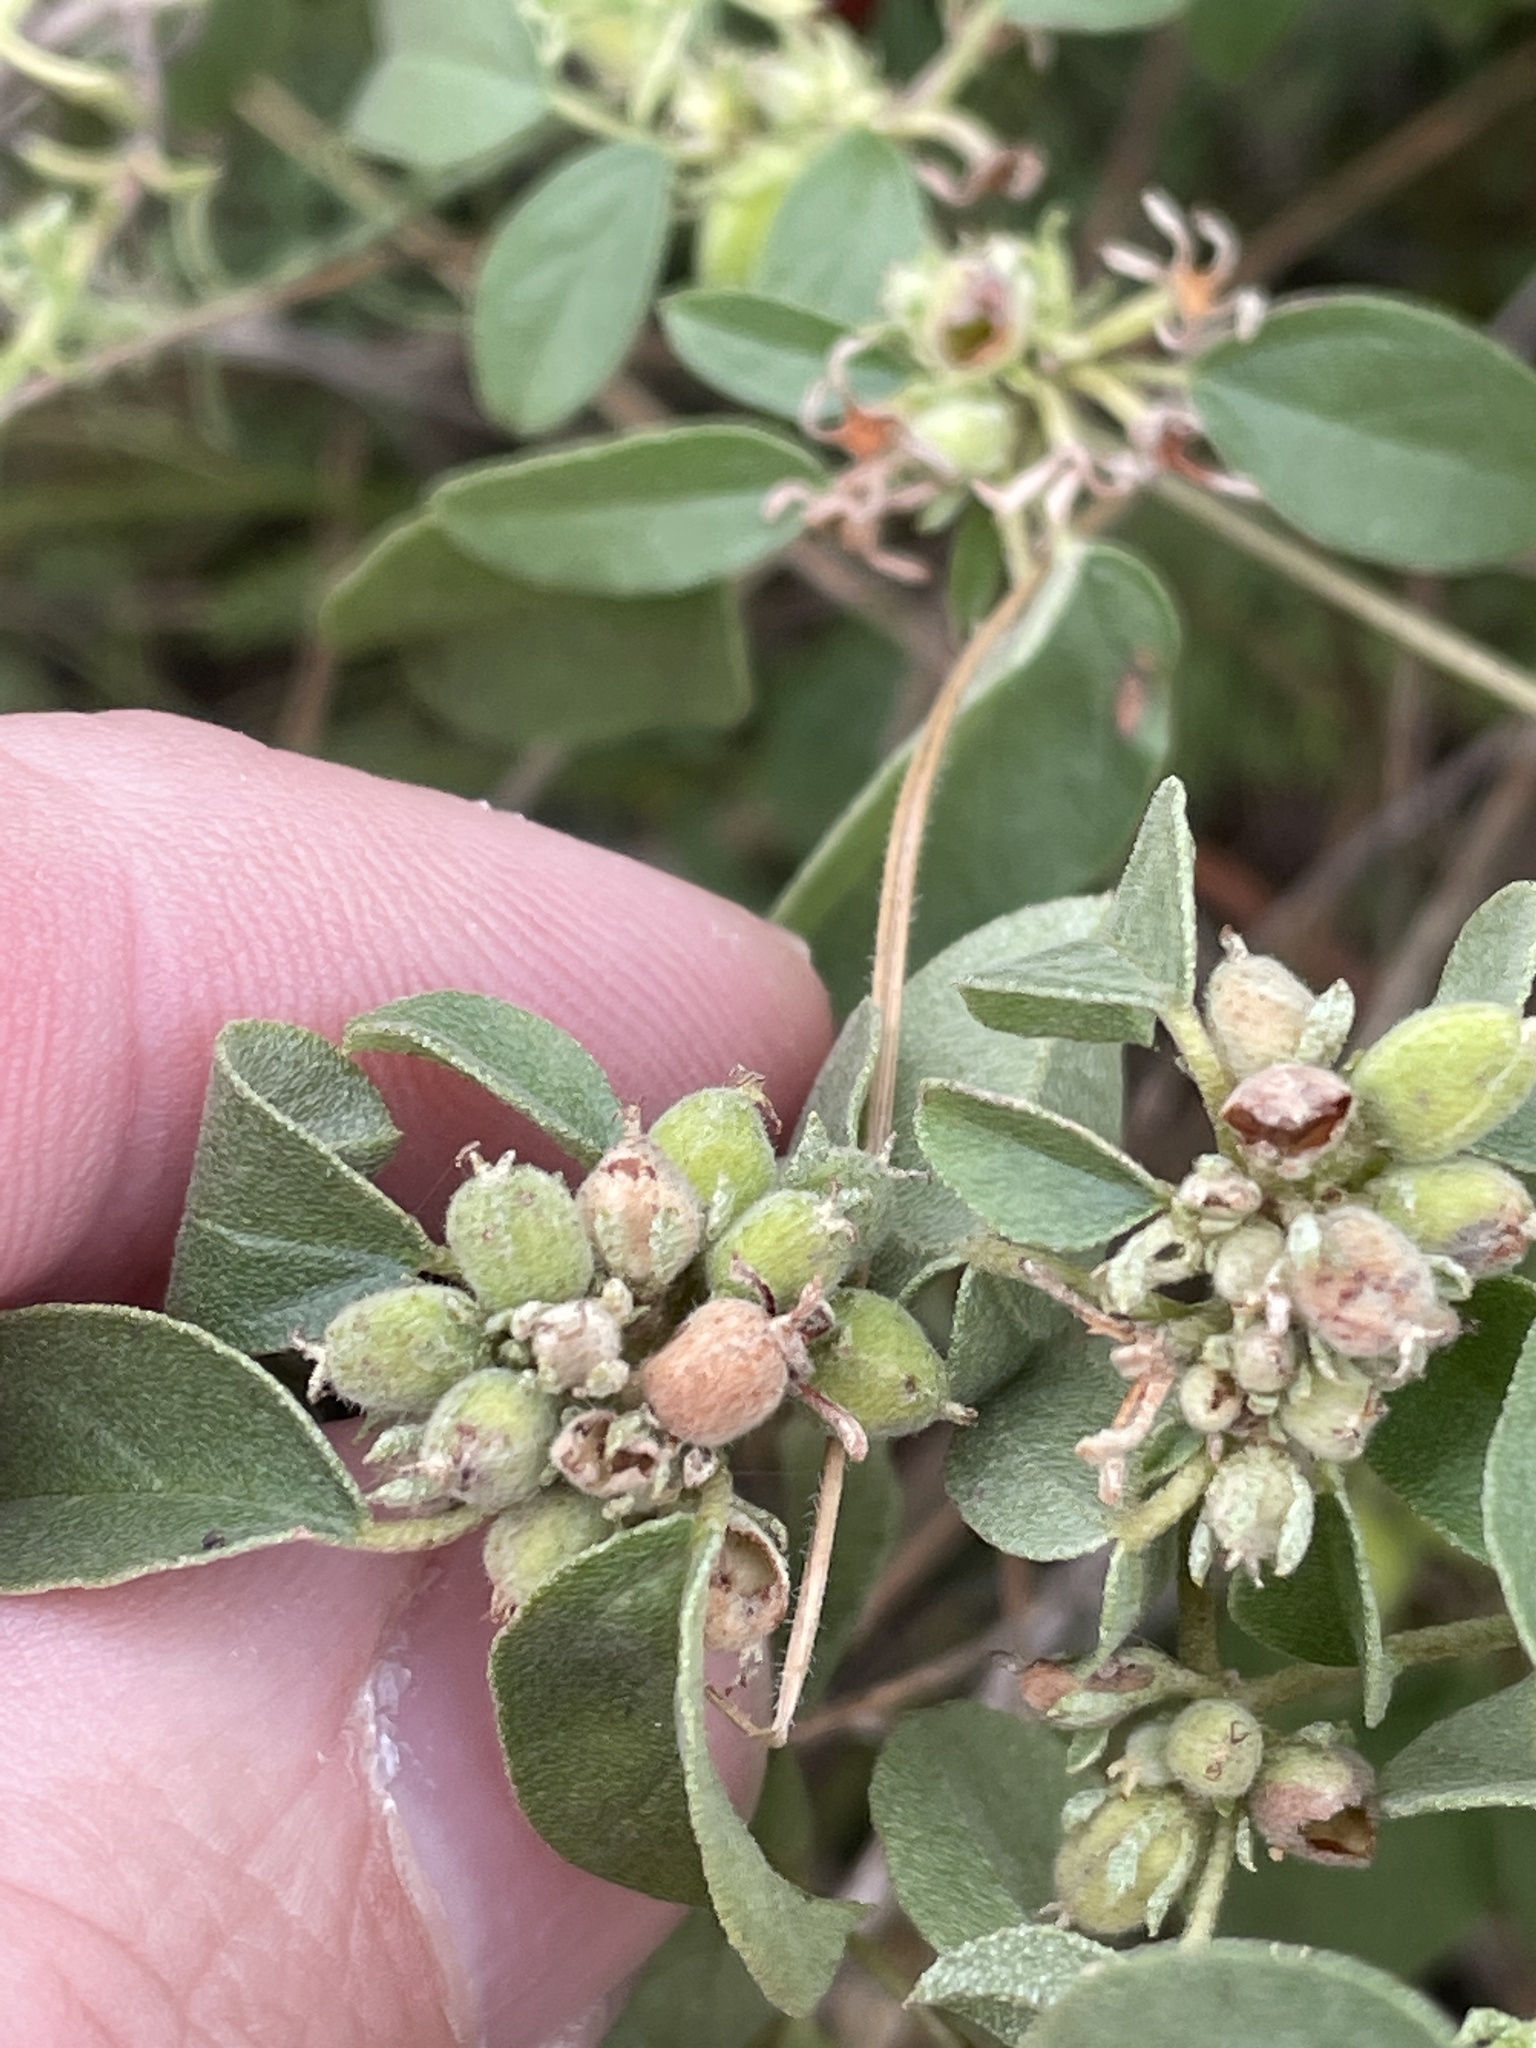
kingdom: Plantae
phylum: Tracheophyta
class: Magnoliopsida
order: Malpighiales
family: Euphorbiaceae
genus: Croton
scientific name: Croton monanthogynus
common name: One-seed croton
